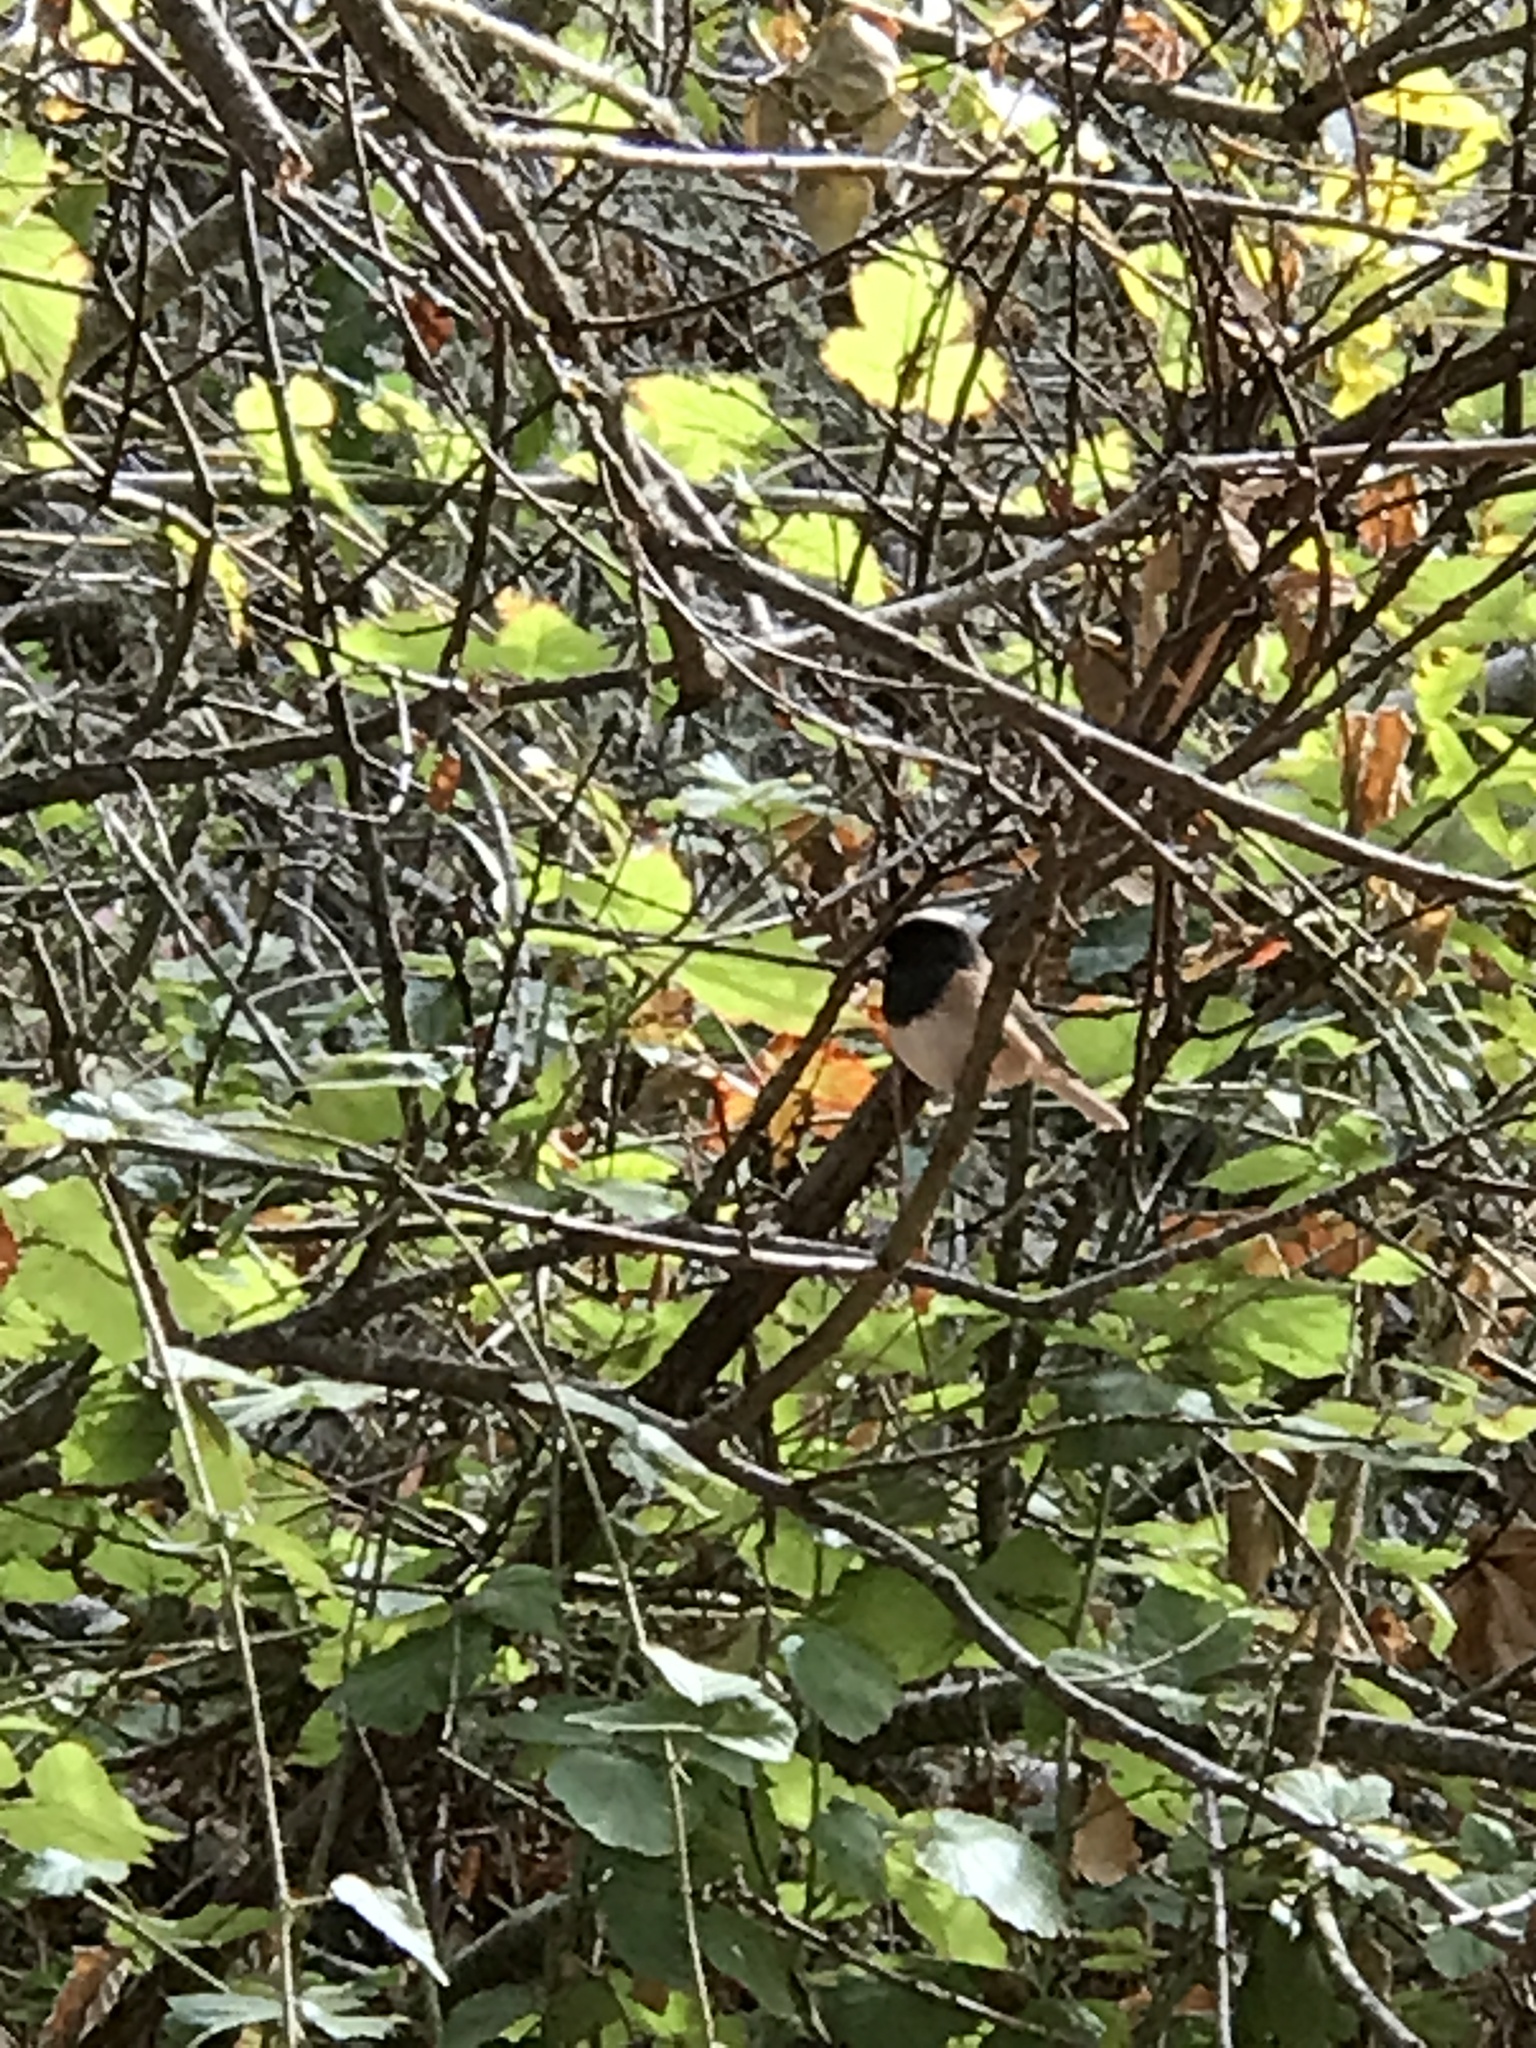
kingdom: Animalia
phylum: Chordata
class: Aves
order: Passeriformes
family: Passerellidae
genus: Junco
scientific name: Junco hyemalis
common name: Dark-eyed junco
